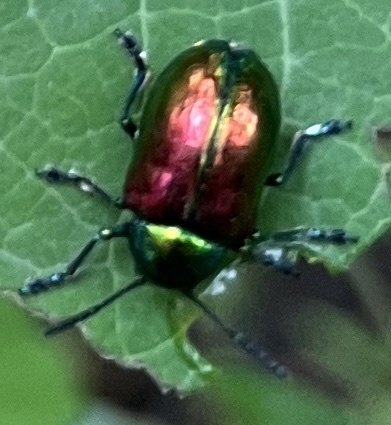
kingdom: Animalia
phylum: Arthropoda
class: Insecta
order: Coleoptera
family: Chrysomelidae
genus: Chrysochus
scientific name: Chrysochus auratus
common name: Dogbane leaf beetle
